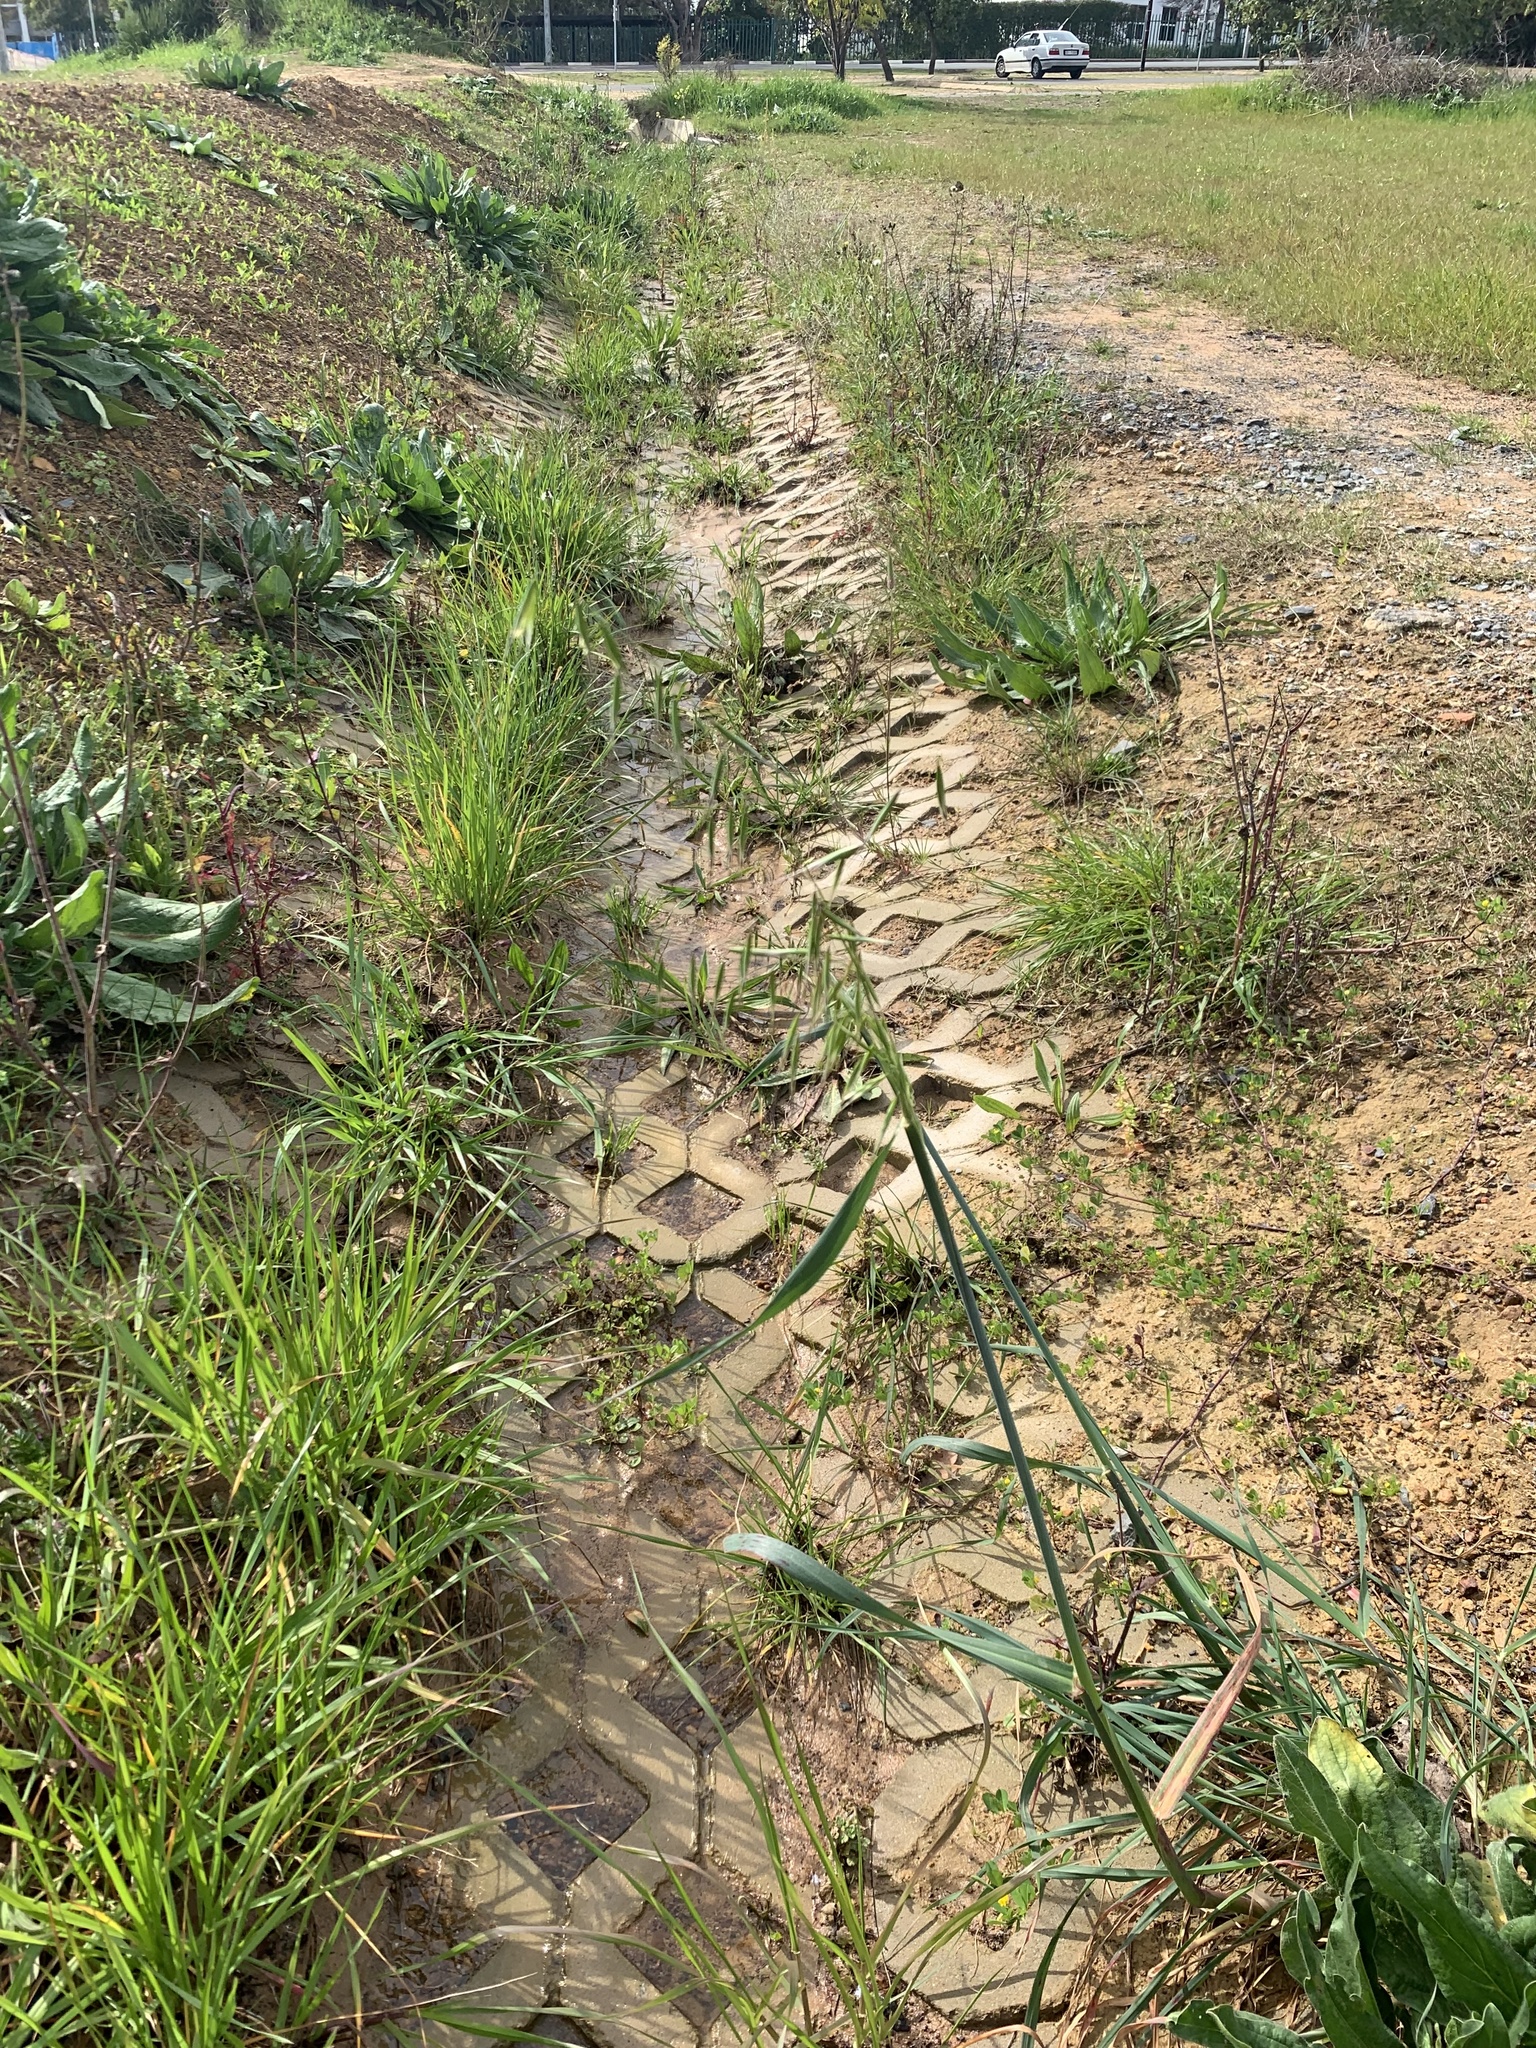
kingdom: Plantae
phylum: Tracheophyta
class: Liliopsida
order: Poales
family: Poaceae
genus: Avena
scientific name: Avena fatua
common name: Wild oat
